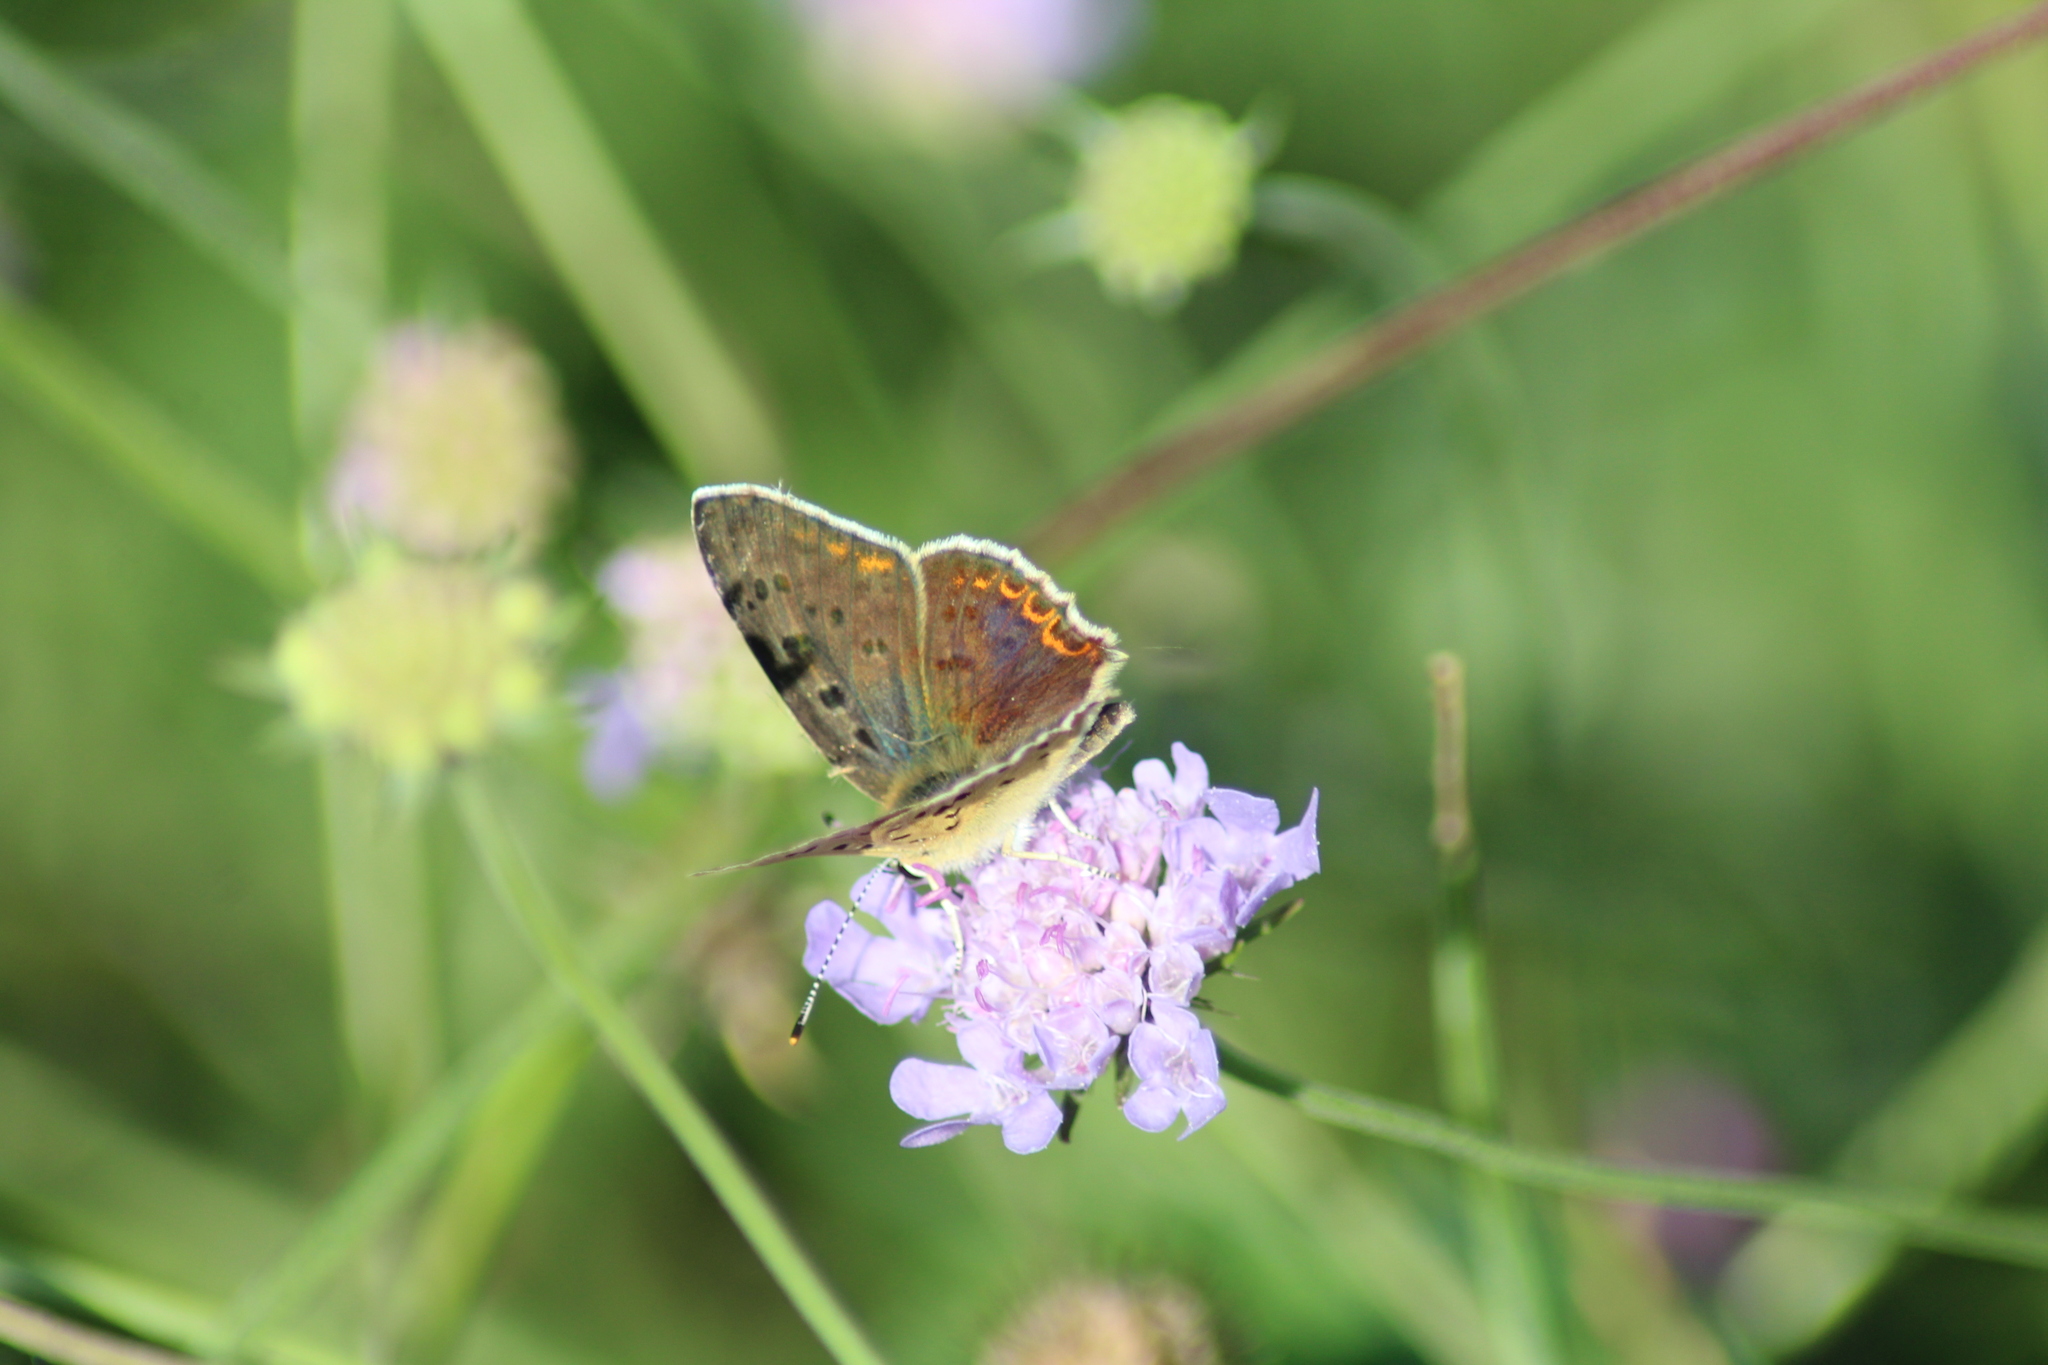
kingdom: Animalia
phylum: Arthropoda
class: Insecta
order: Lepidoptera
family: Lycaenidae
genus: Loweia
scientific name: Loweia tityrus
